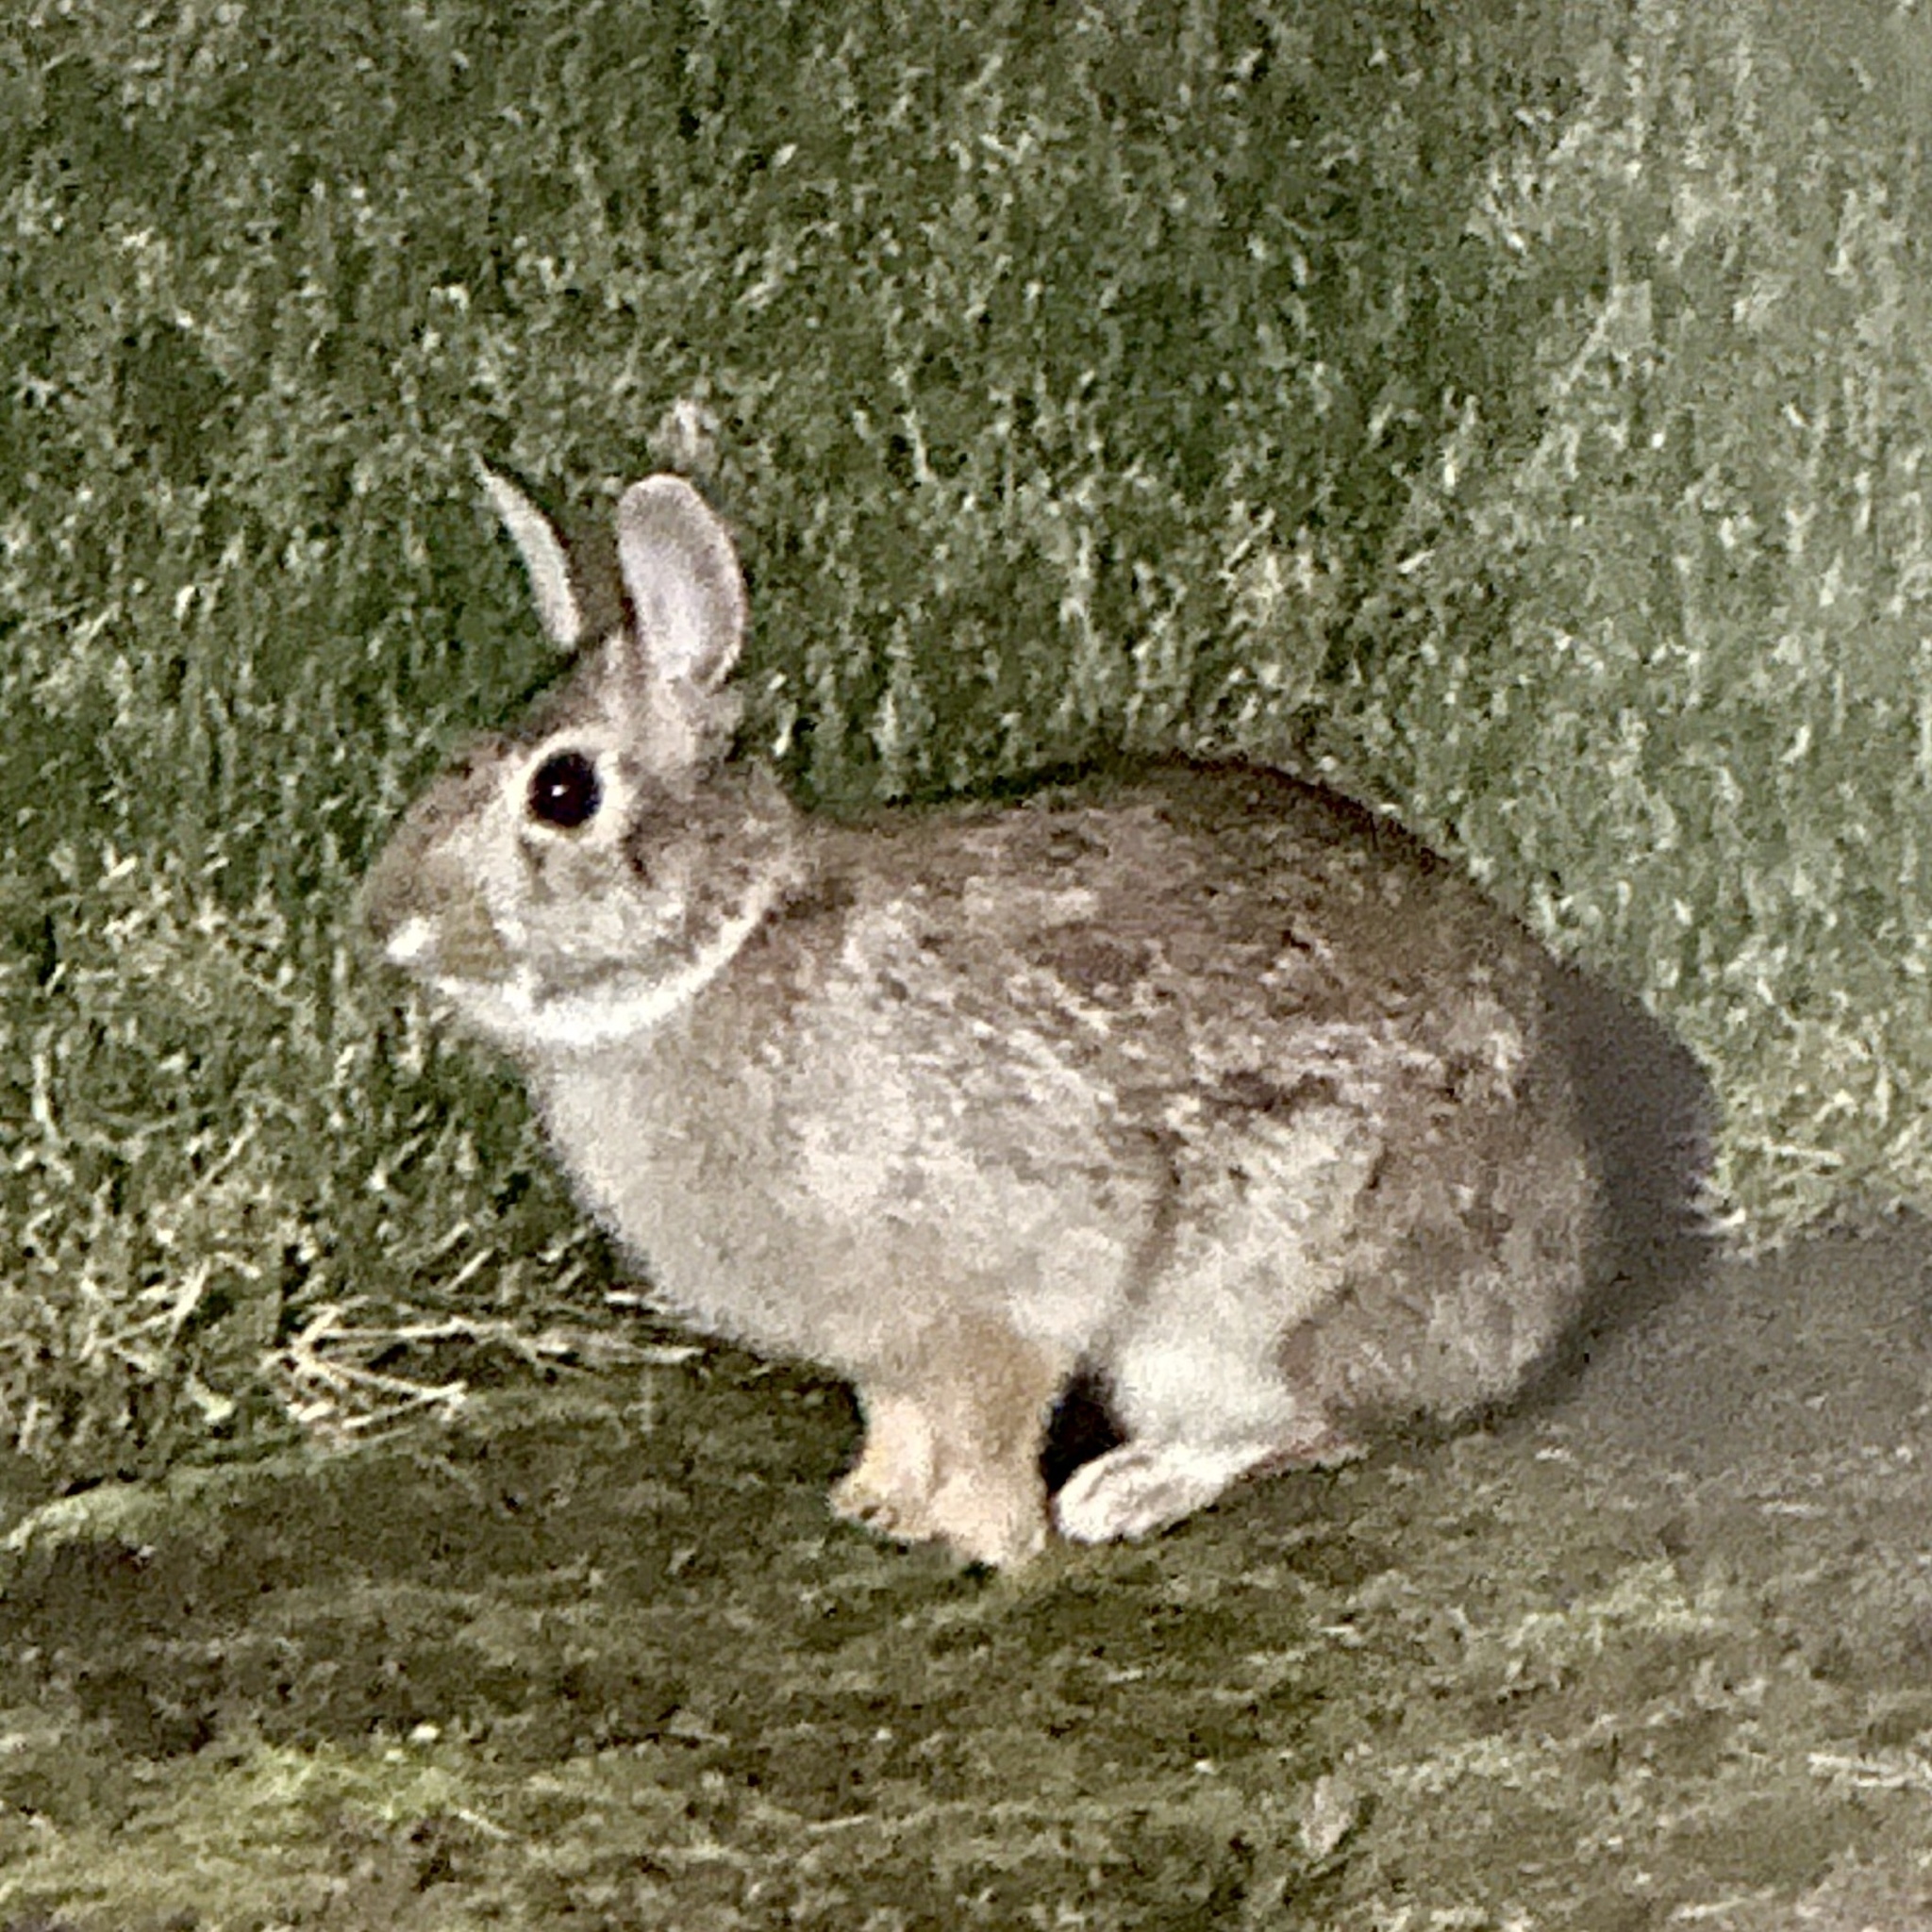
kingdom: Animalia
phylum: Chordata
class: Mammalia
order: Lagomorpha
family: Leporidae
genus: Sylvilagus
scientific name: Sylvilagus floridanus
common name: Eastern cottontail
